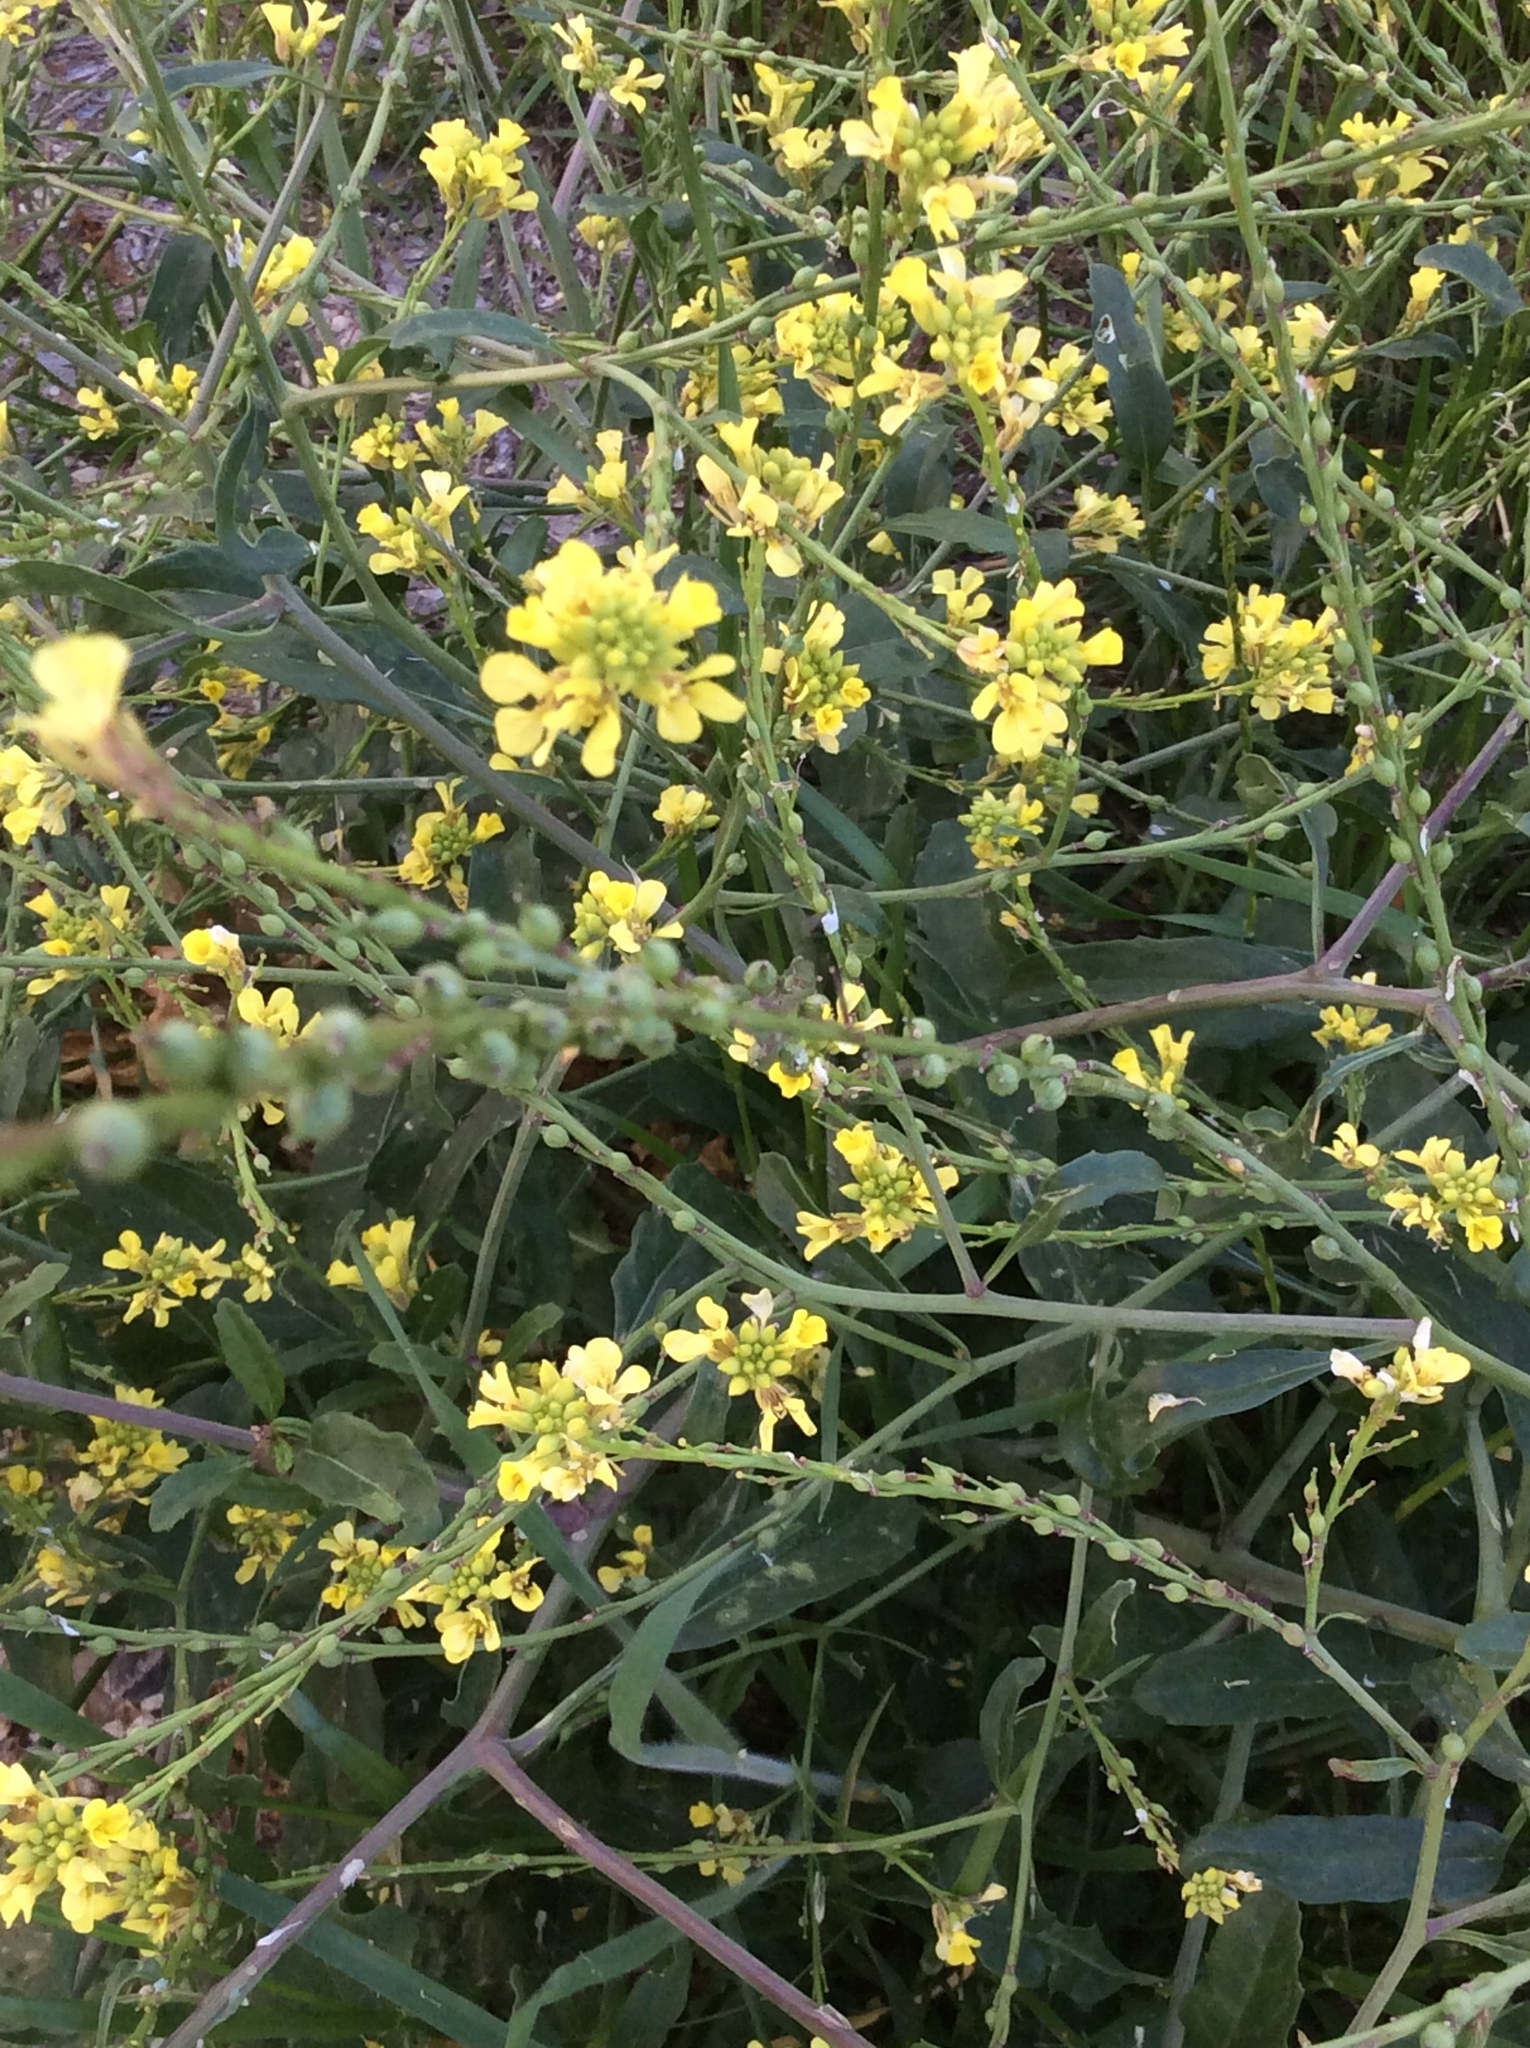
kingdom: Plantae
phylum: Tracheophyta
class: Magnoliopsida
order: Brassicales
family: Brassicaceae
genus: Rapistrum
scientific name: Rapistrum rugosum
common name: Annual bastardcabbage
